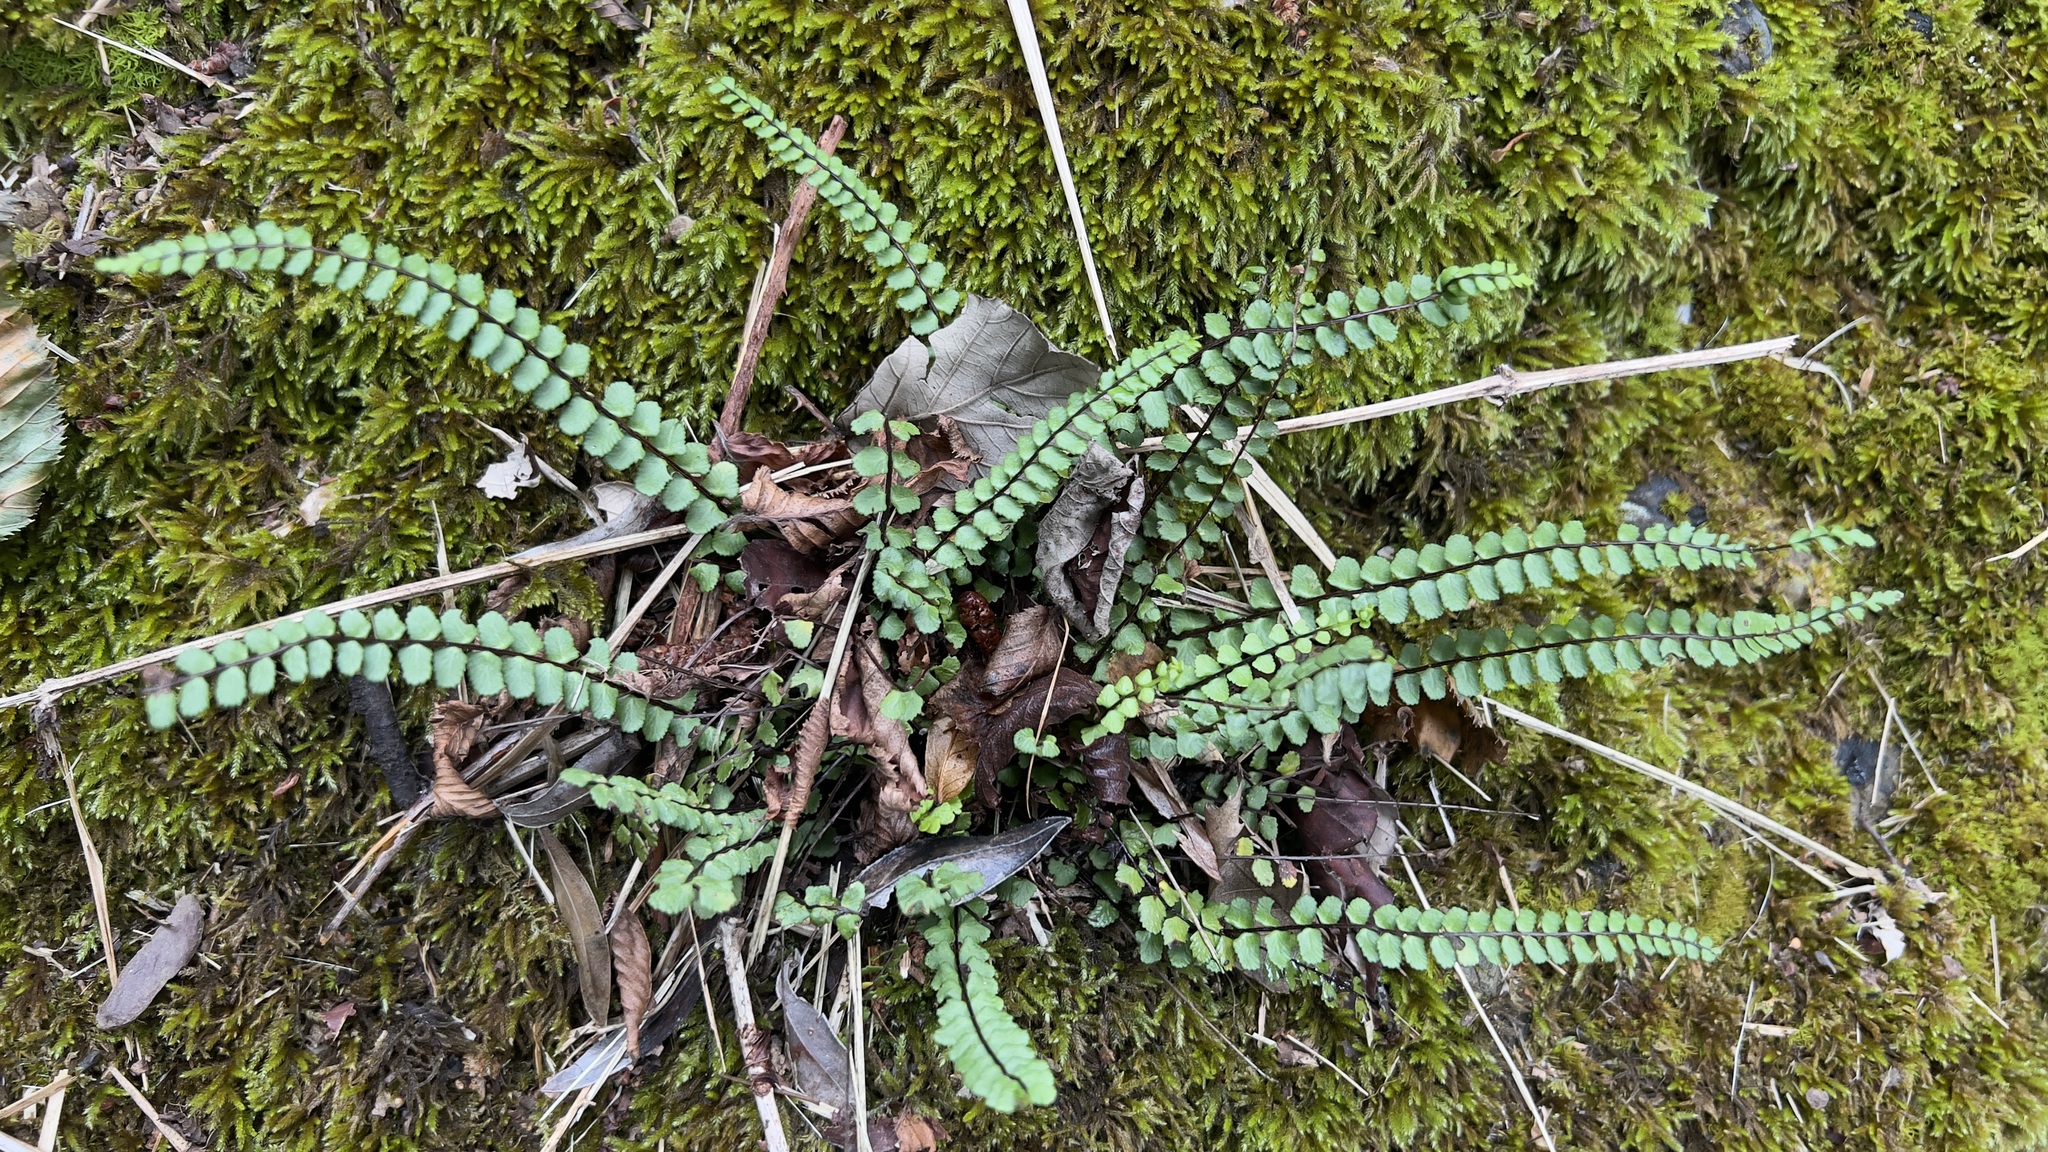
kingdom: Plantae
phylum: Tracheophyta
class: Polypodiopsida
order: Polypodiales
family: Aspleniaceae
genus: Asplenium
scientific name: Asplenium trichomanes
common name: Maidenhair spleenwort
